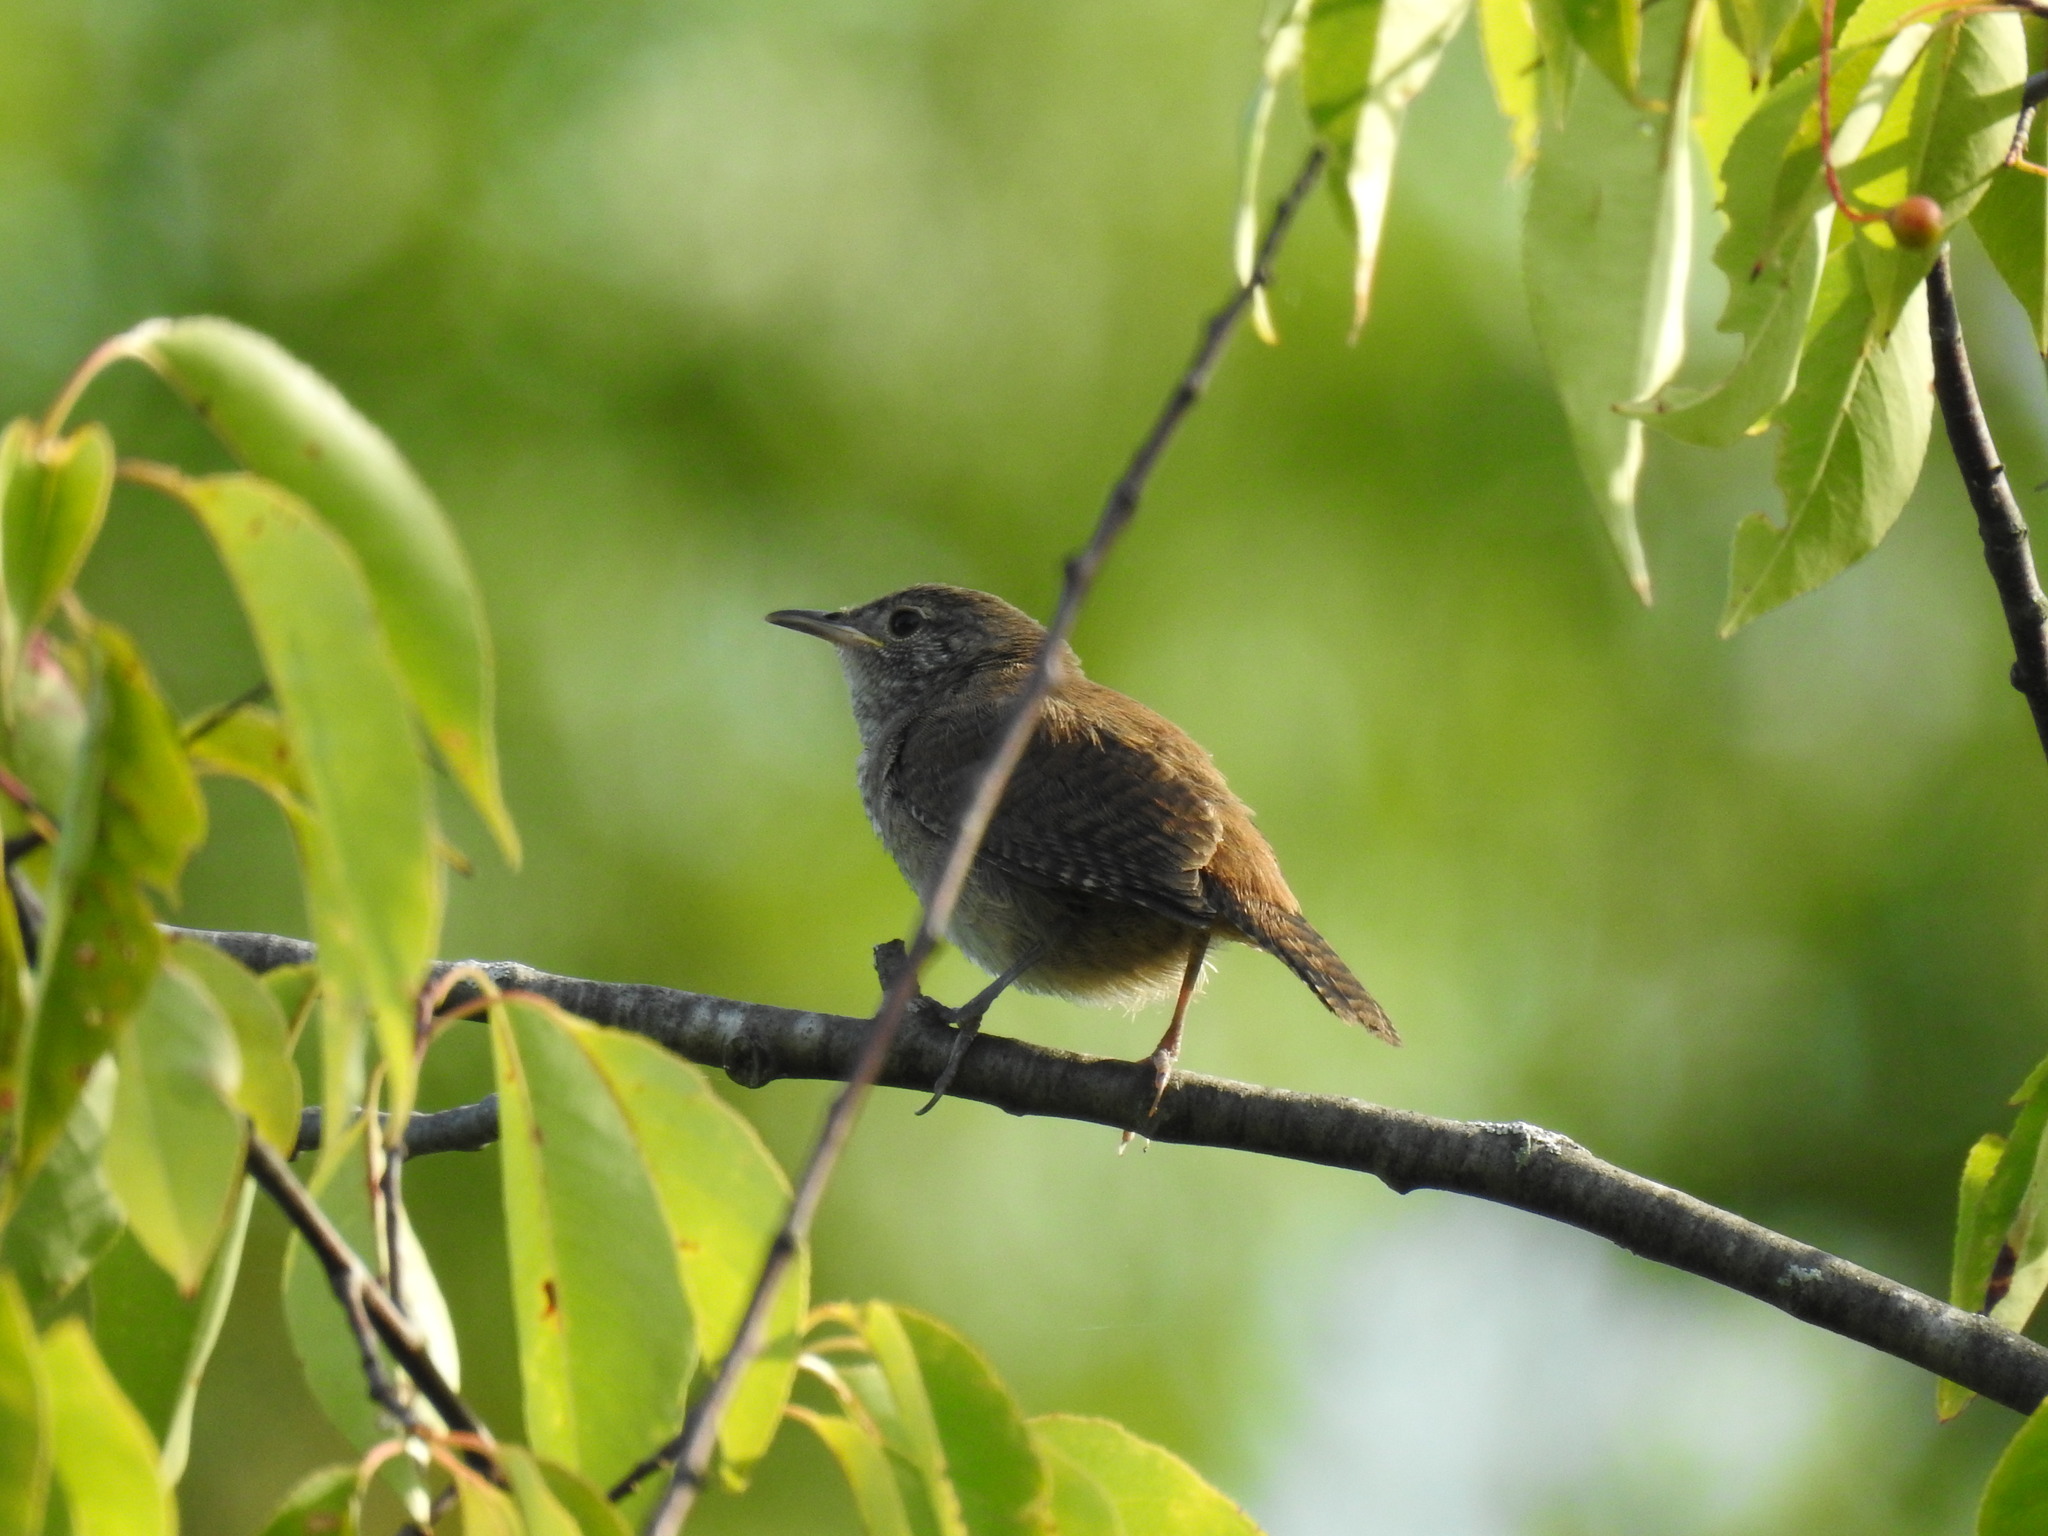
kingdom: Animalia
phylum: Chordata
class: Aves
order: Passeriformes
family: Troglodytidae
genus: Troglodytes
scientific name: Troglodytes aedon
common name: House wren
